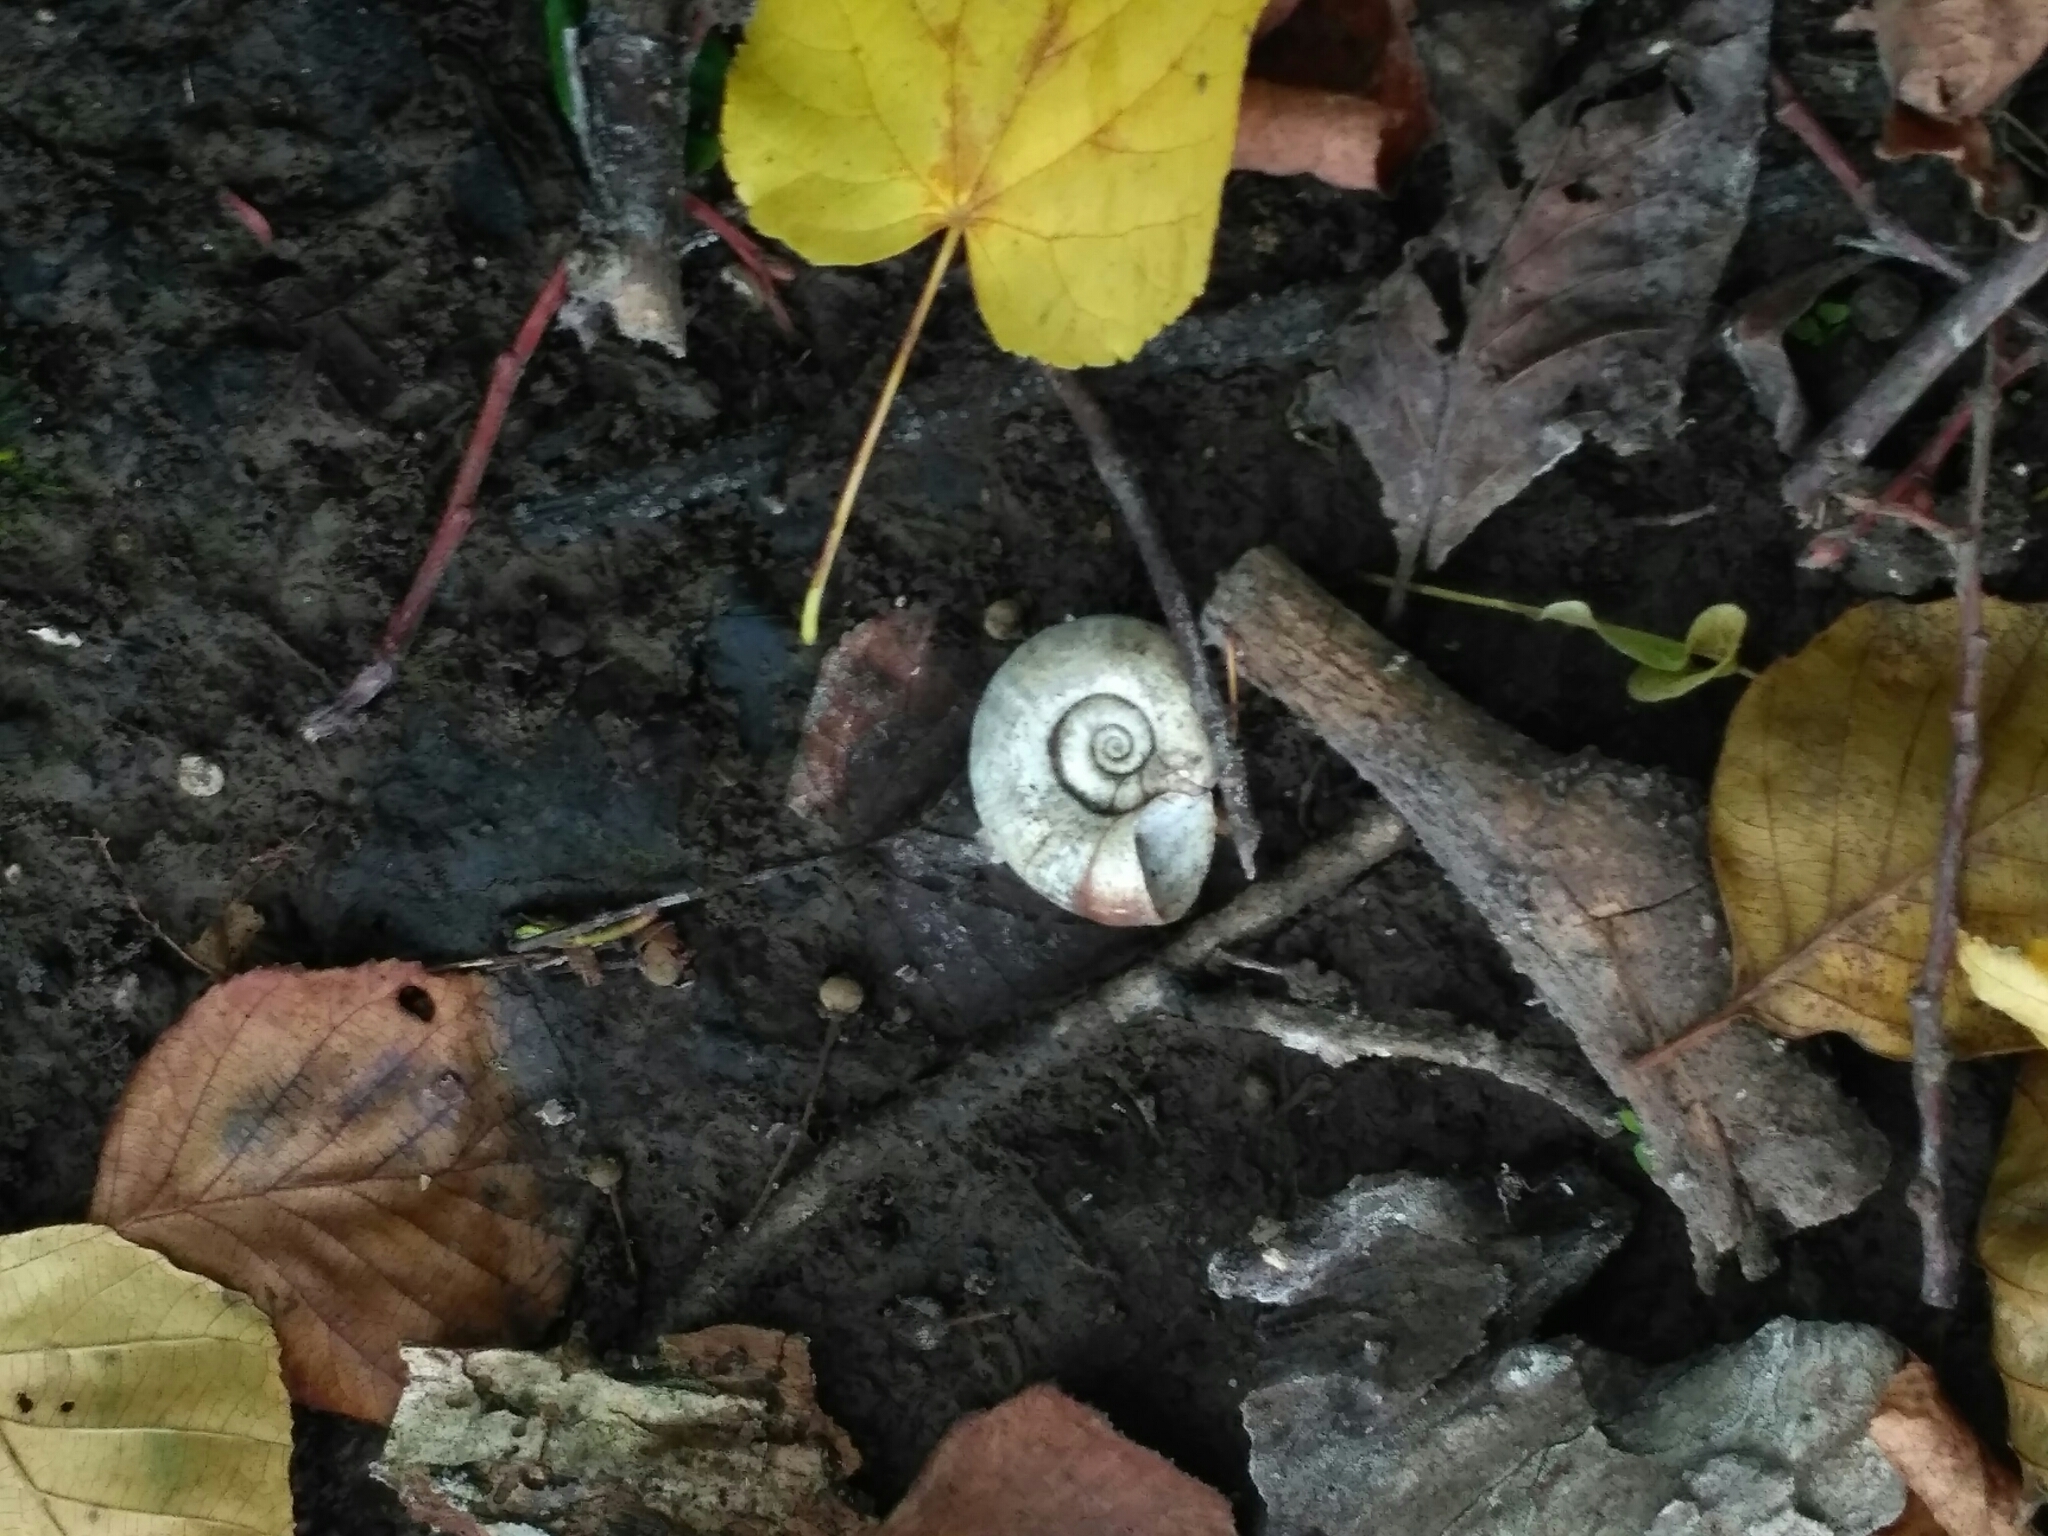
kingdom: Animalia
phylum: Mollusca
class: Gastropoda
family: Planorbidae
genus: Planorbarius
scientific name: Planorbarius corneus
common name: Great ramshorn
